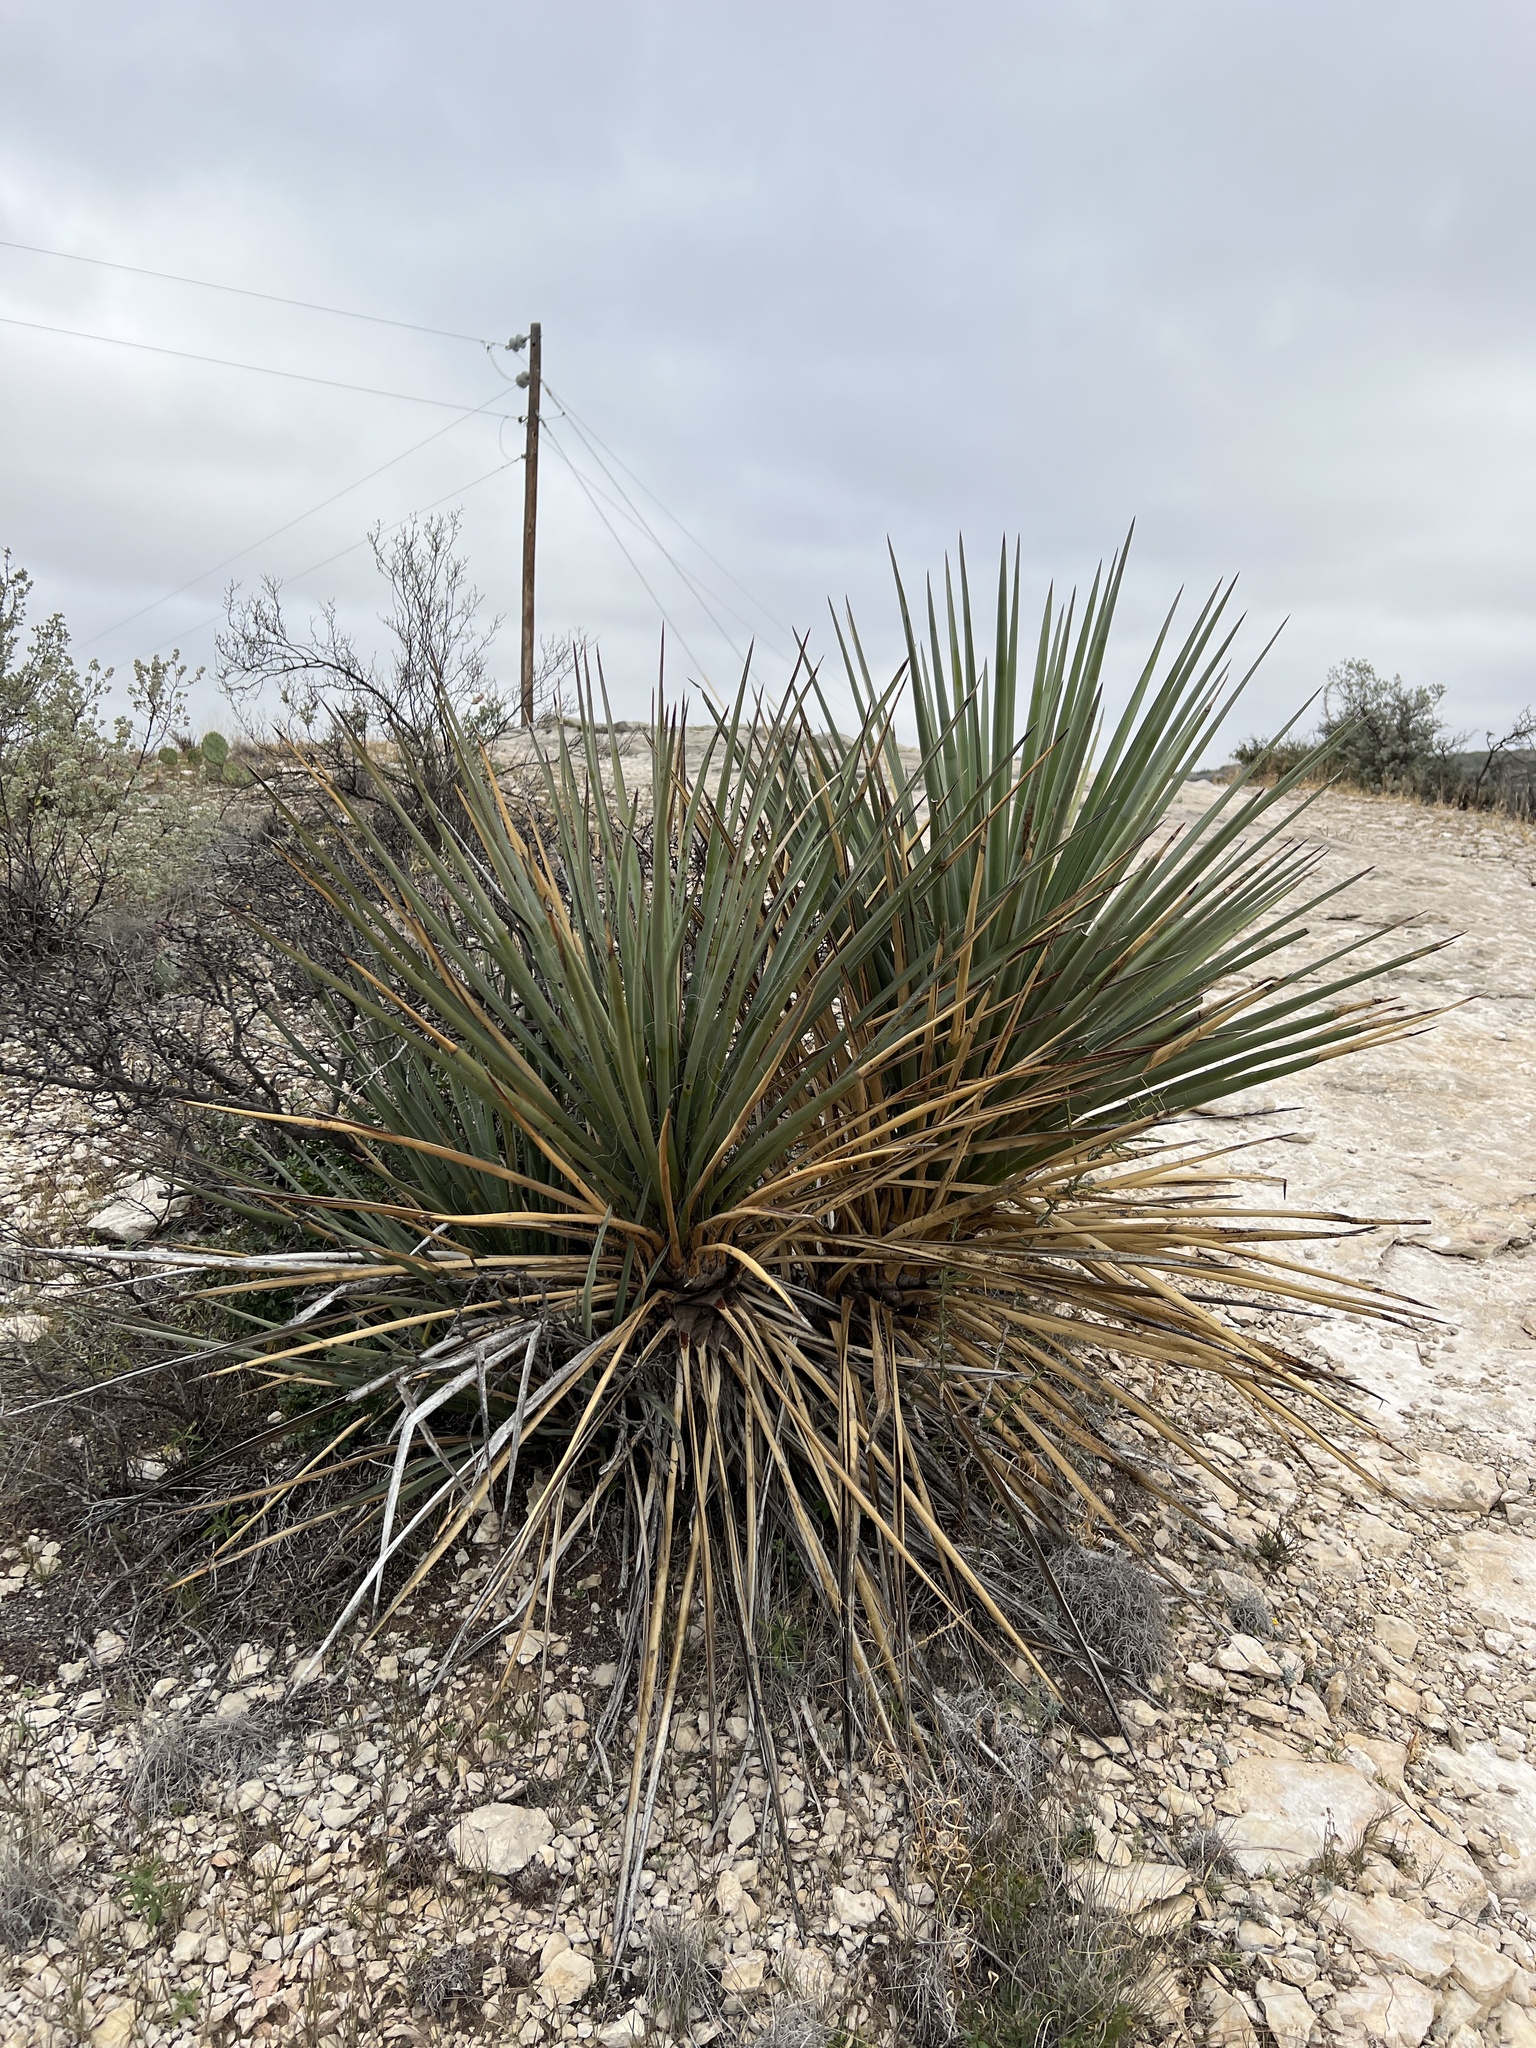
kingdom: Plantae
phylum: Tracheophyta
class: Liliopsida
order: Asparagales
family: Asparagaceae
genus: Yucca
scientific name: Yucca treculiana
